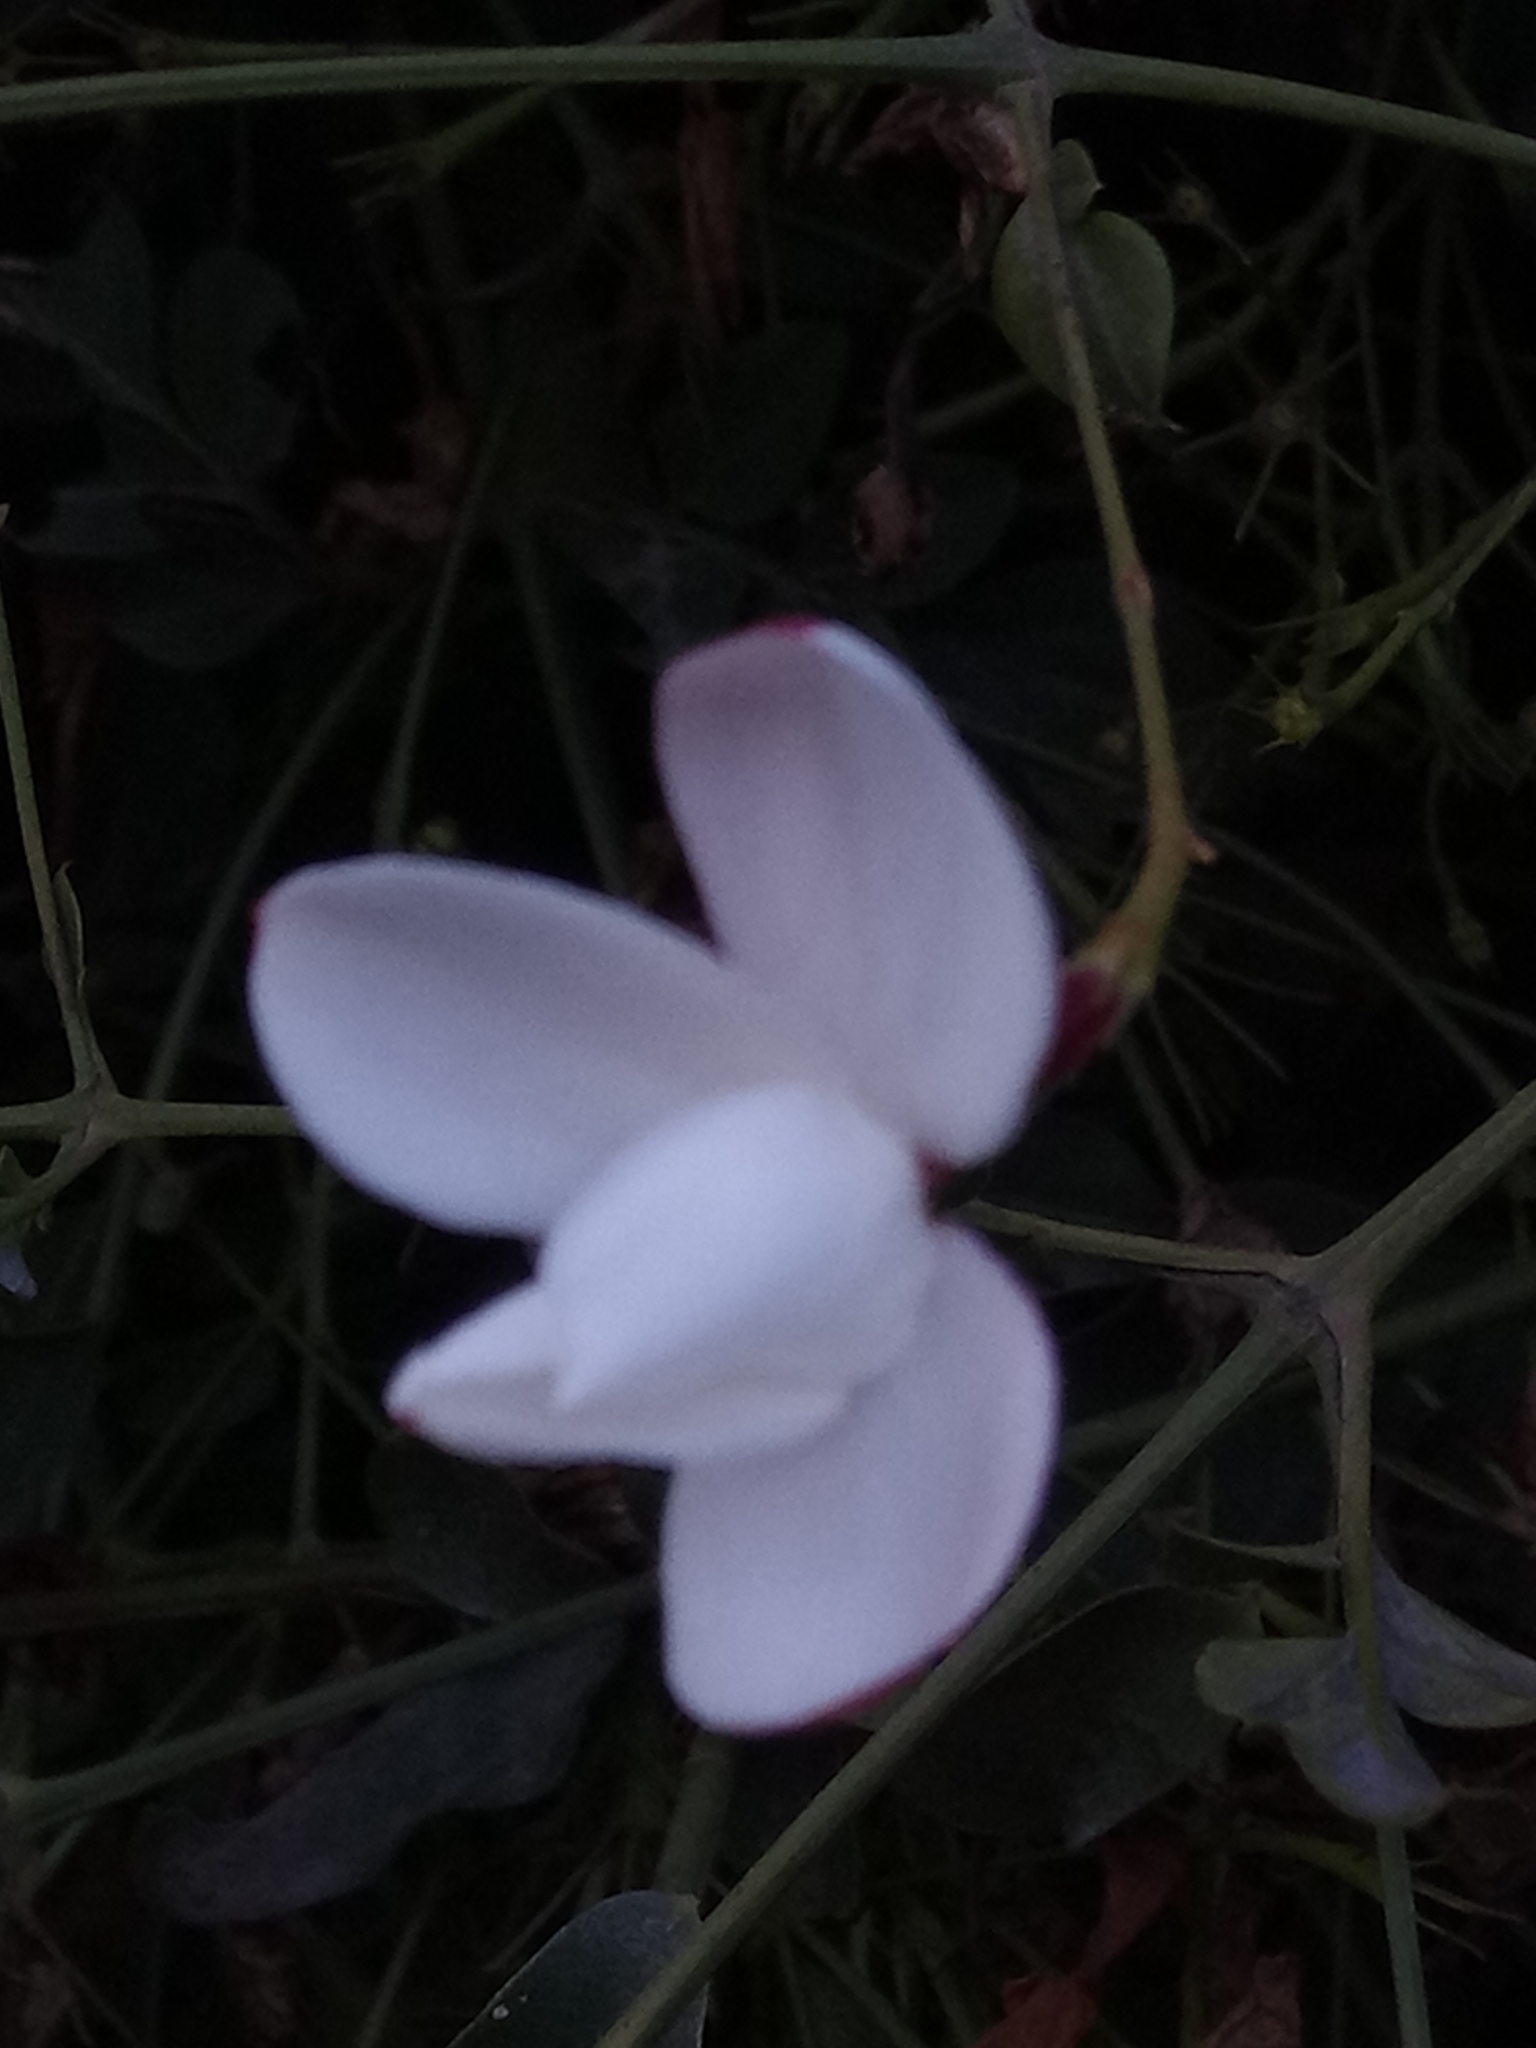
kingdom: Plantae
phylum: Tracheophyta
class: Magnoliopsida
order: Lamiales
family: Oleaceae
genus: Jasminum
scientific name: Jasminum officinale
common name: Summer jasmine
